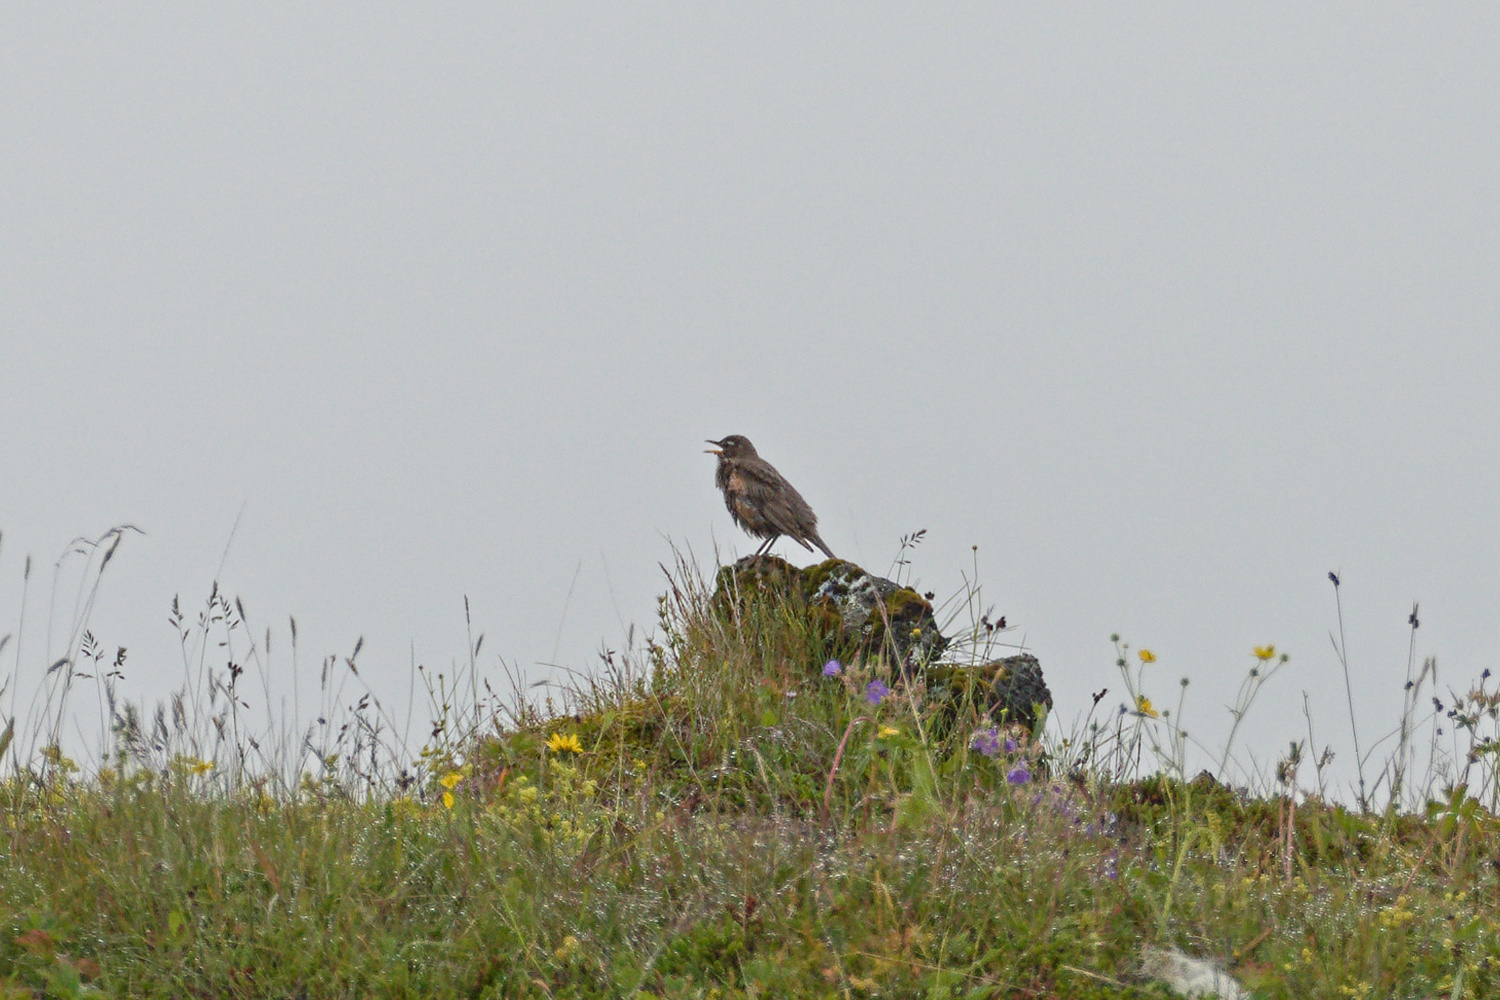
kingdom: Animalia
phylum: Chordata
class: Aves
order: Passeriformes
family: Turdidae
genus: Turdus
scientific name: Turdus iliacus
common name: Redwing
